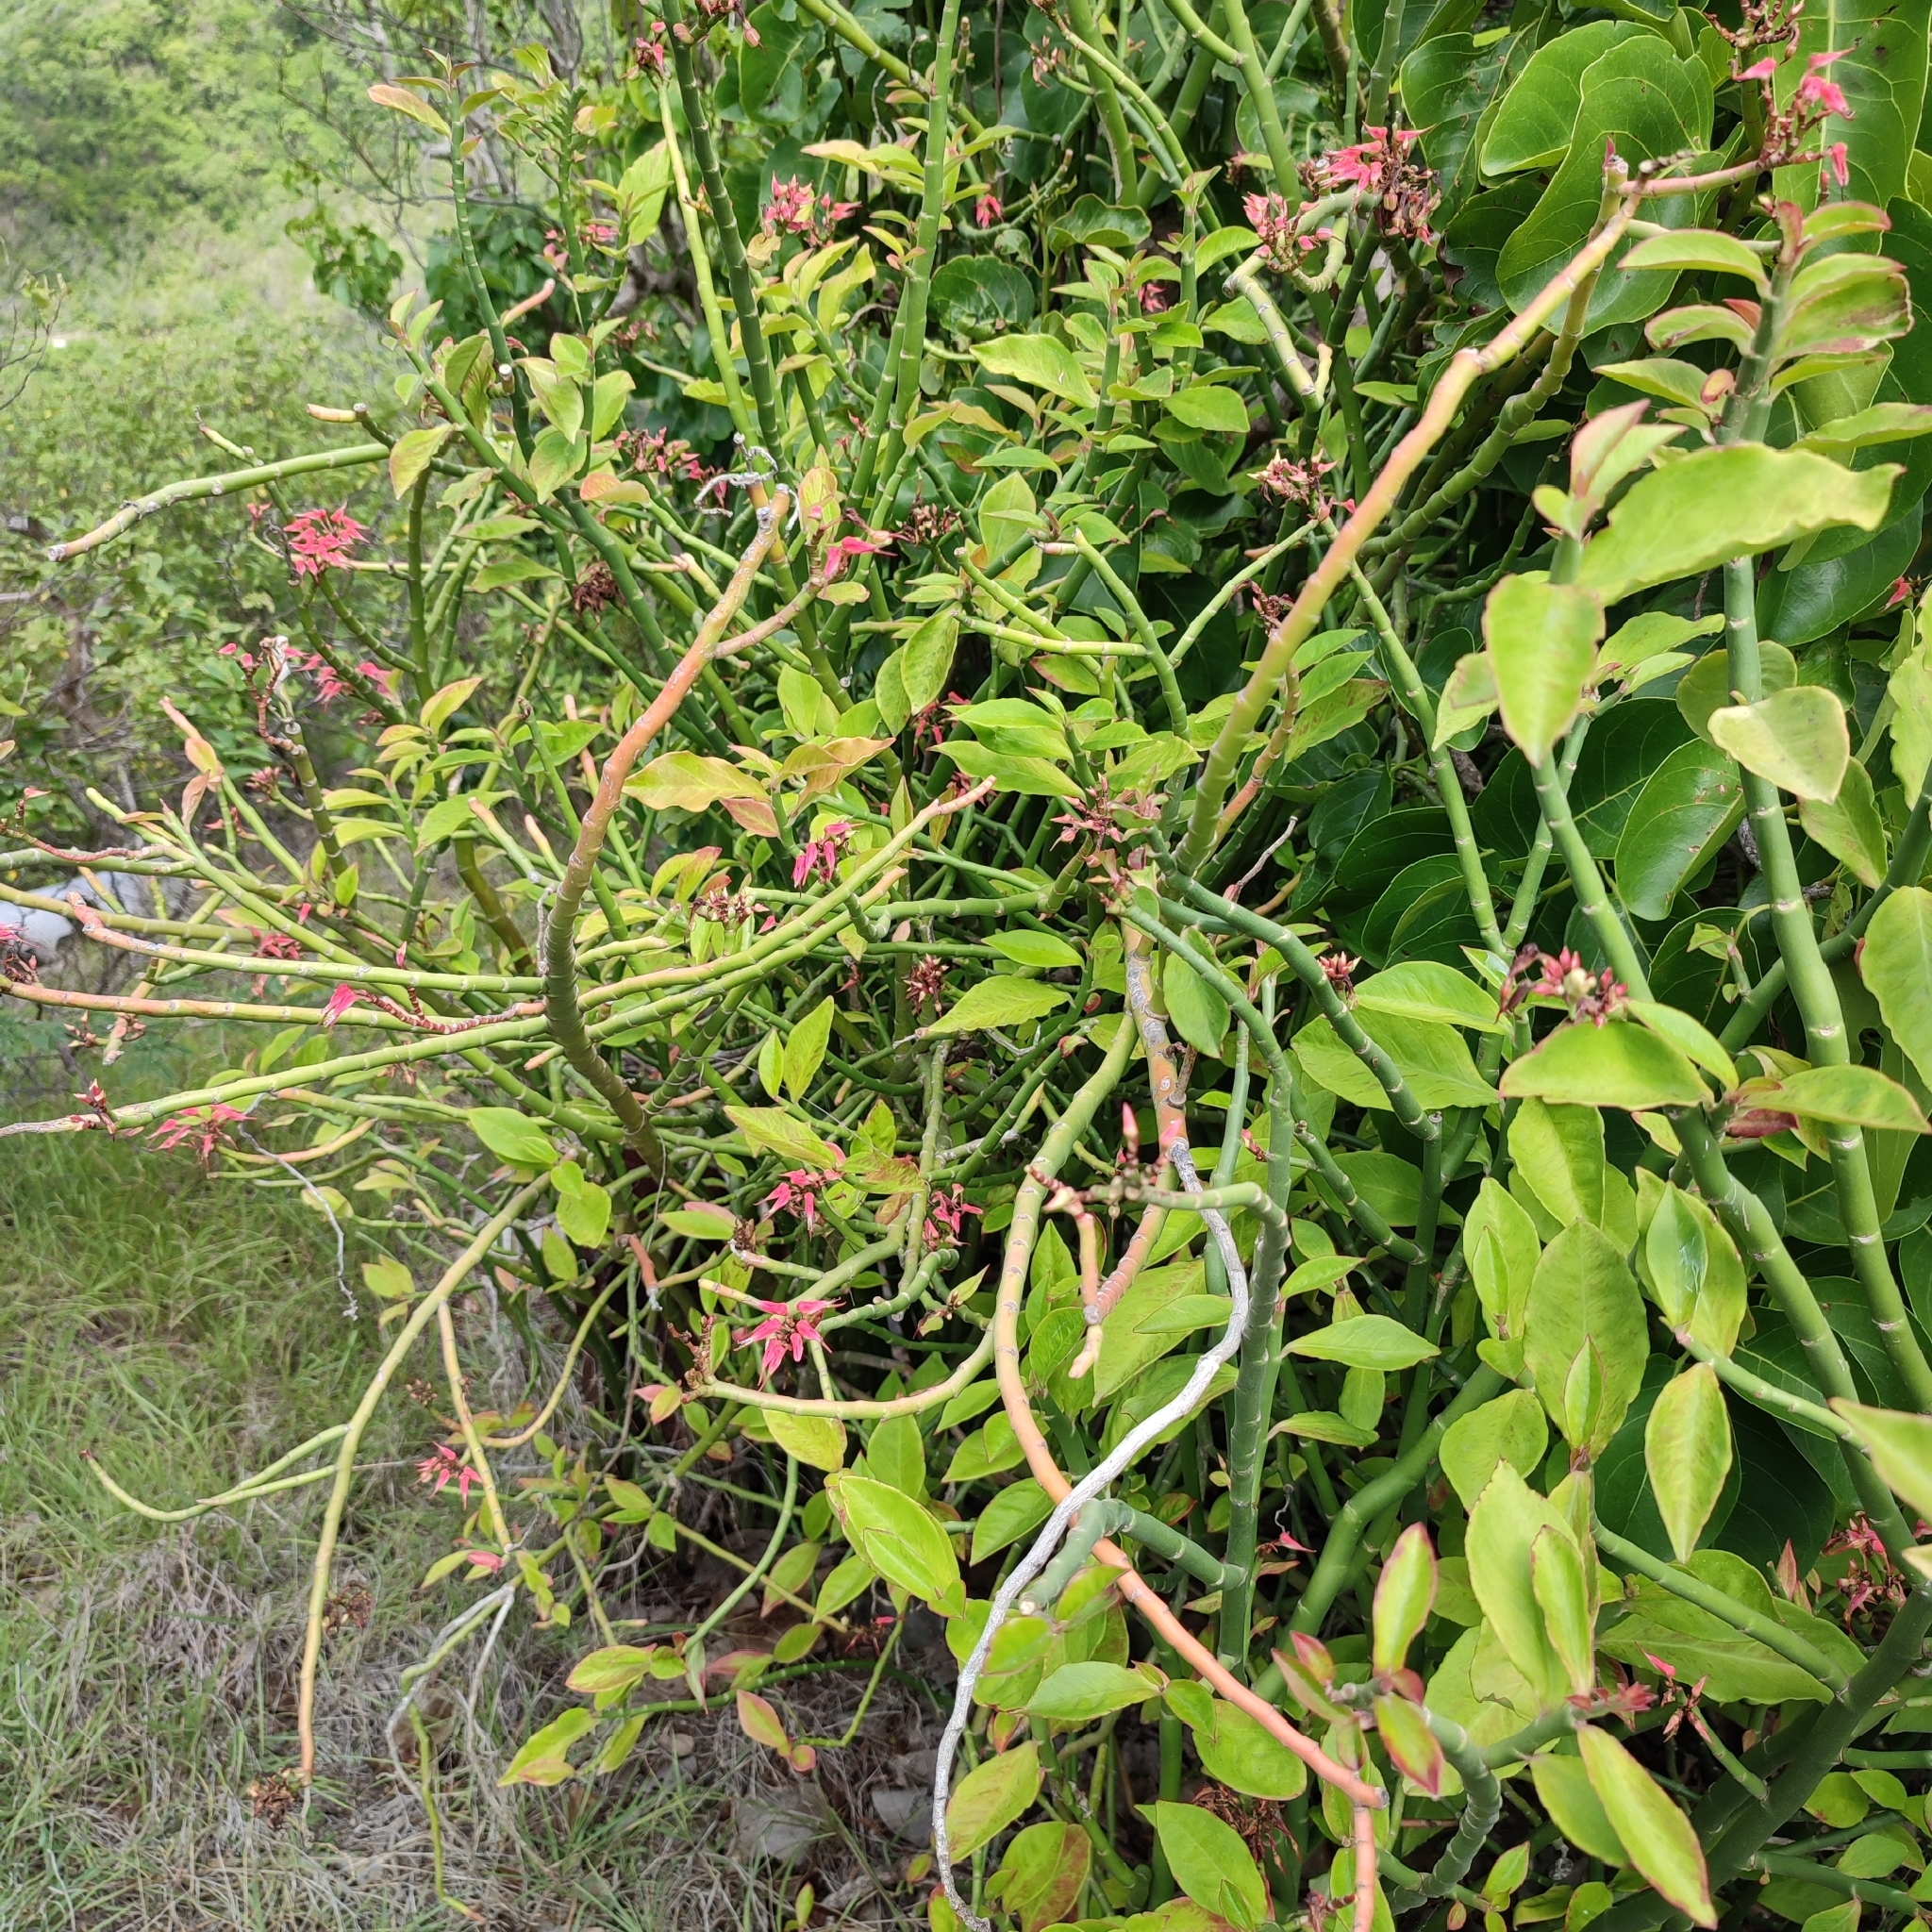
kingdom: Plantae
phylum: Tracheophyta
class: Magnoliopsida
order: Malpighiales
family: Euphorbiaceae
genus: Euphorbia
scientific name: Euphorbia tithymaloides
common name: Slipperplant
